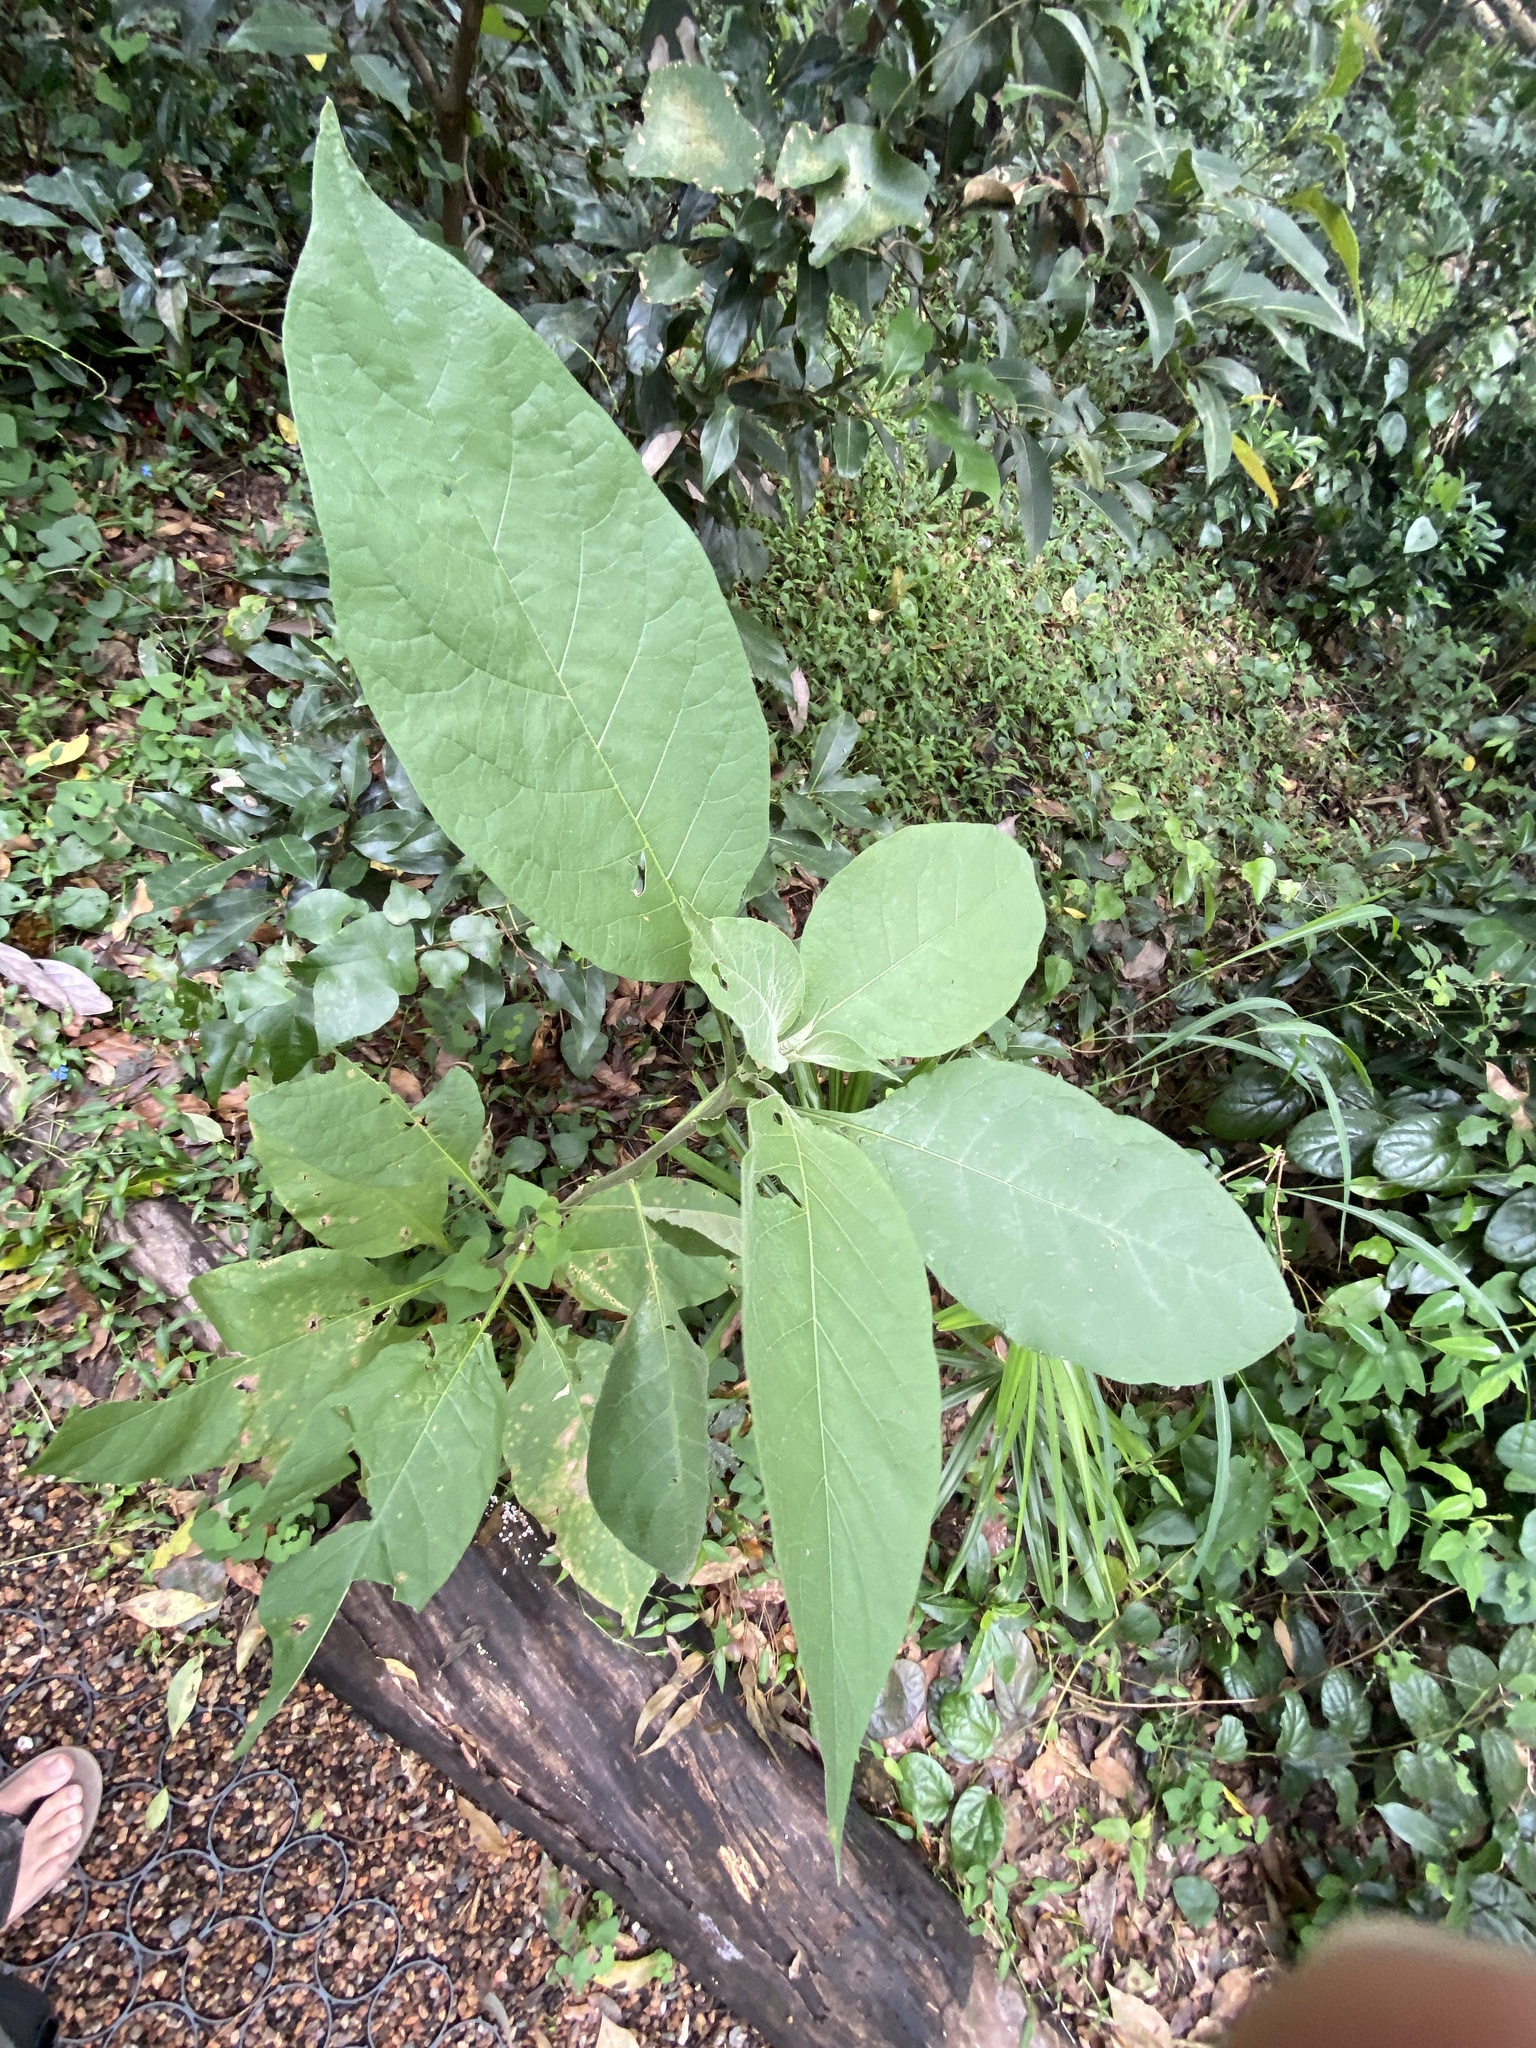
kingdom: Plantae
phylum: Tracheophyta
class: Magnoliopsida
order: Solanales
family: Solanaceae
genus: Solanum
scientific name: Solanum mauritianum
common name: Earleaf nightshade
